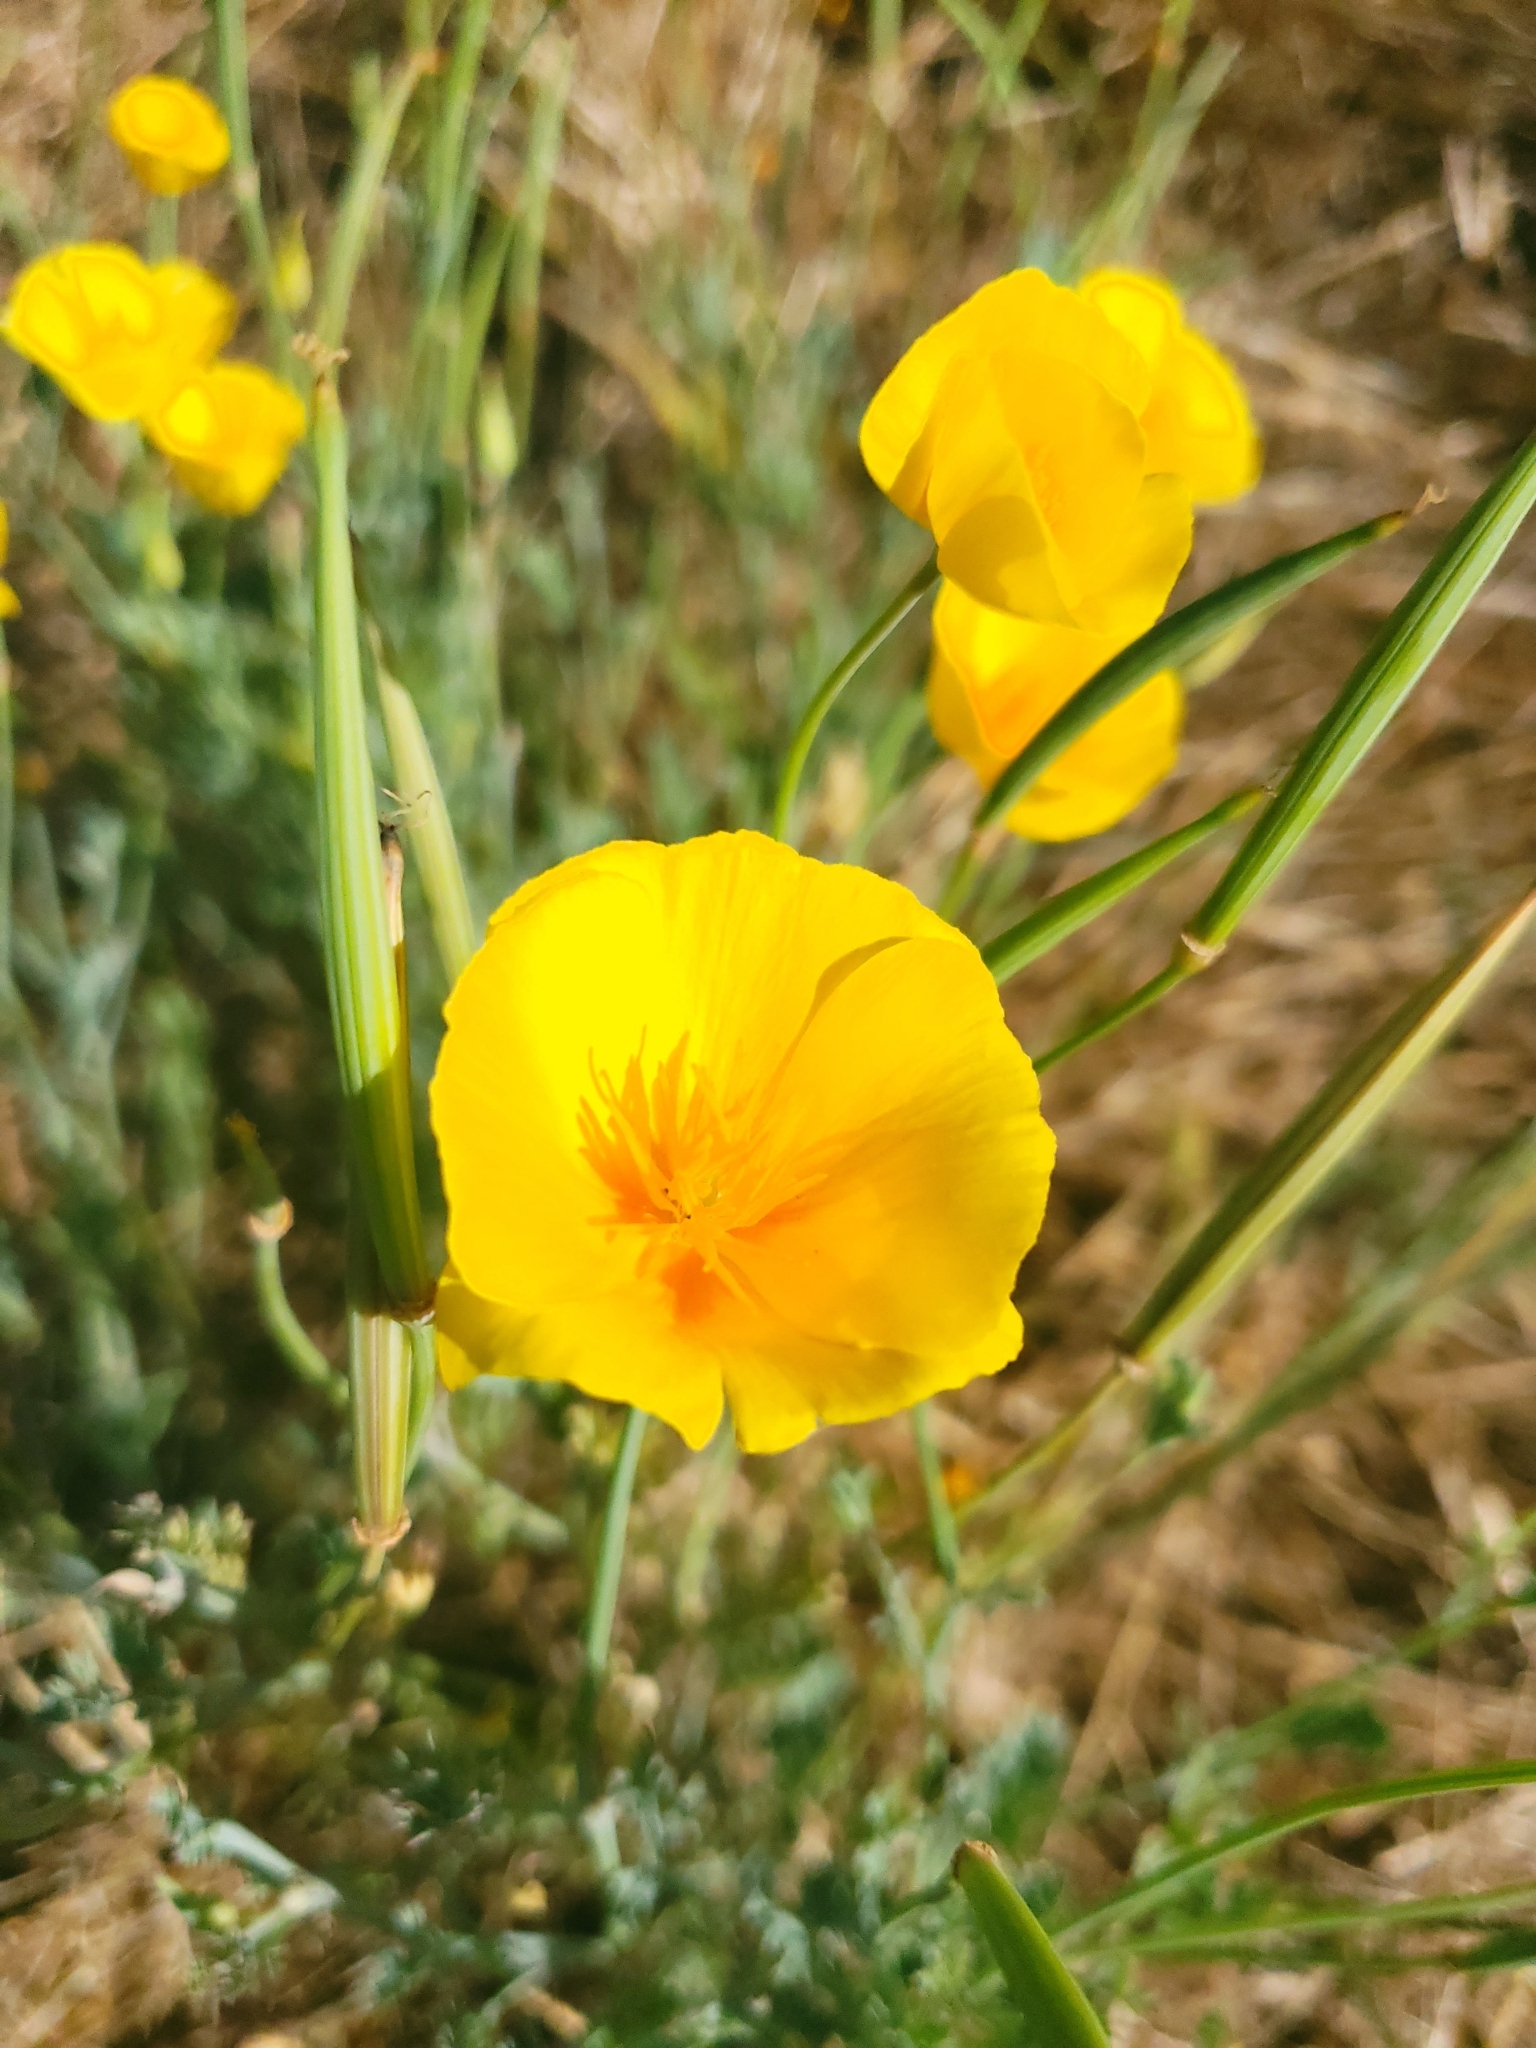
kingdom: Plantae
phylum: Tracheophyta
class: Magnoliopsida
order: Ranunculales
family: Papaveraceae
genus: Eschscholzia
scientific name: Eschscholzia californica
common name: California poppy
